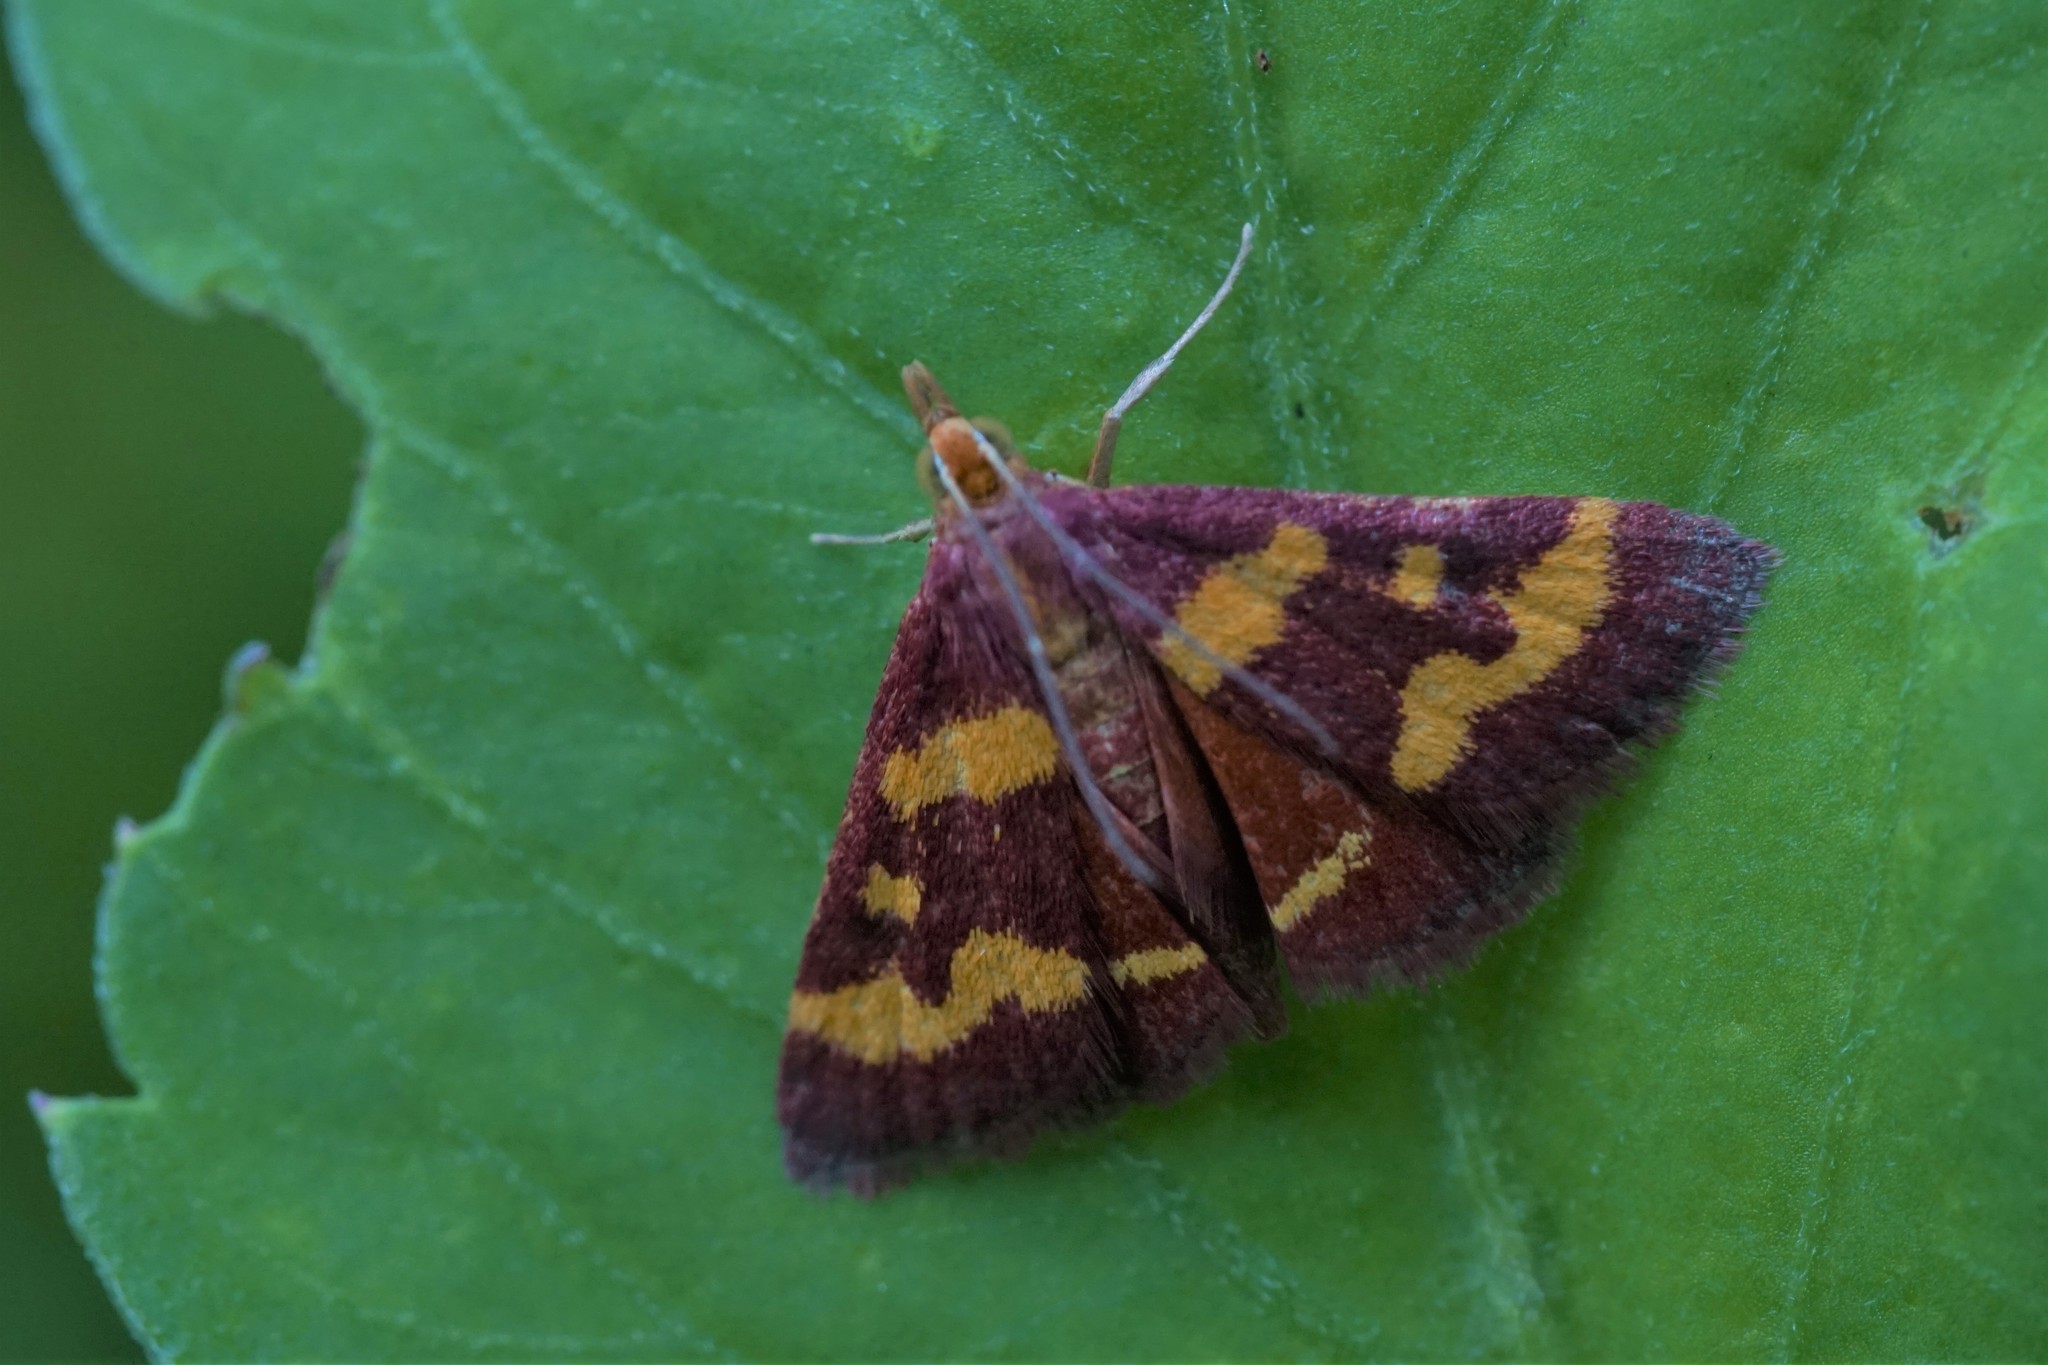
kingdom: Animalia
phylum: Arthropoda
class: Insecta
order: Lepidoptera
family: Crambidae
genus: Pyrausta
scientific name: Pyrausta tyralis
